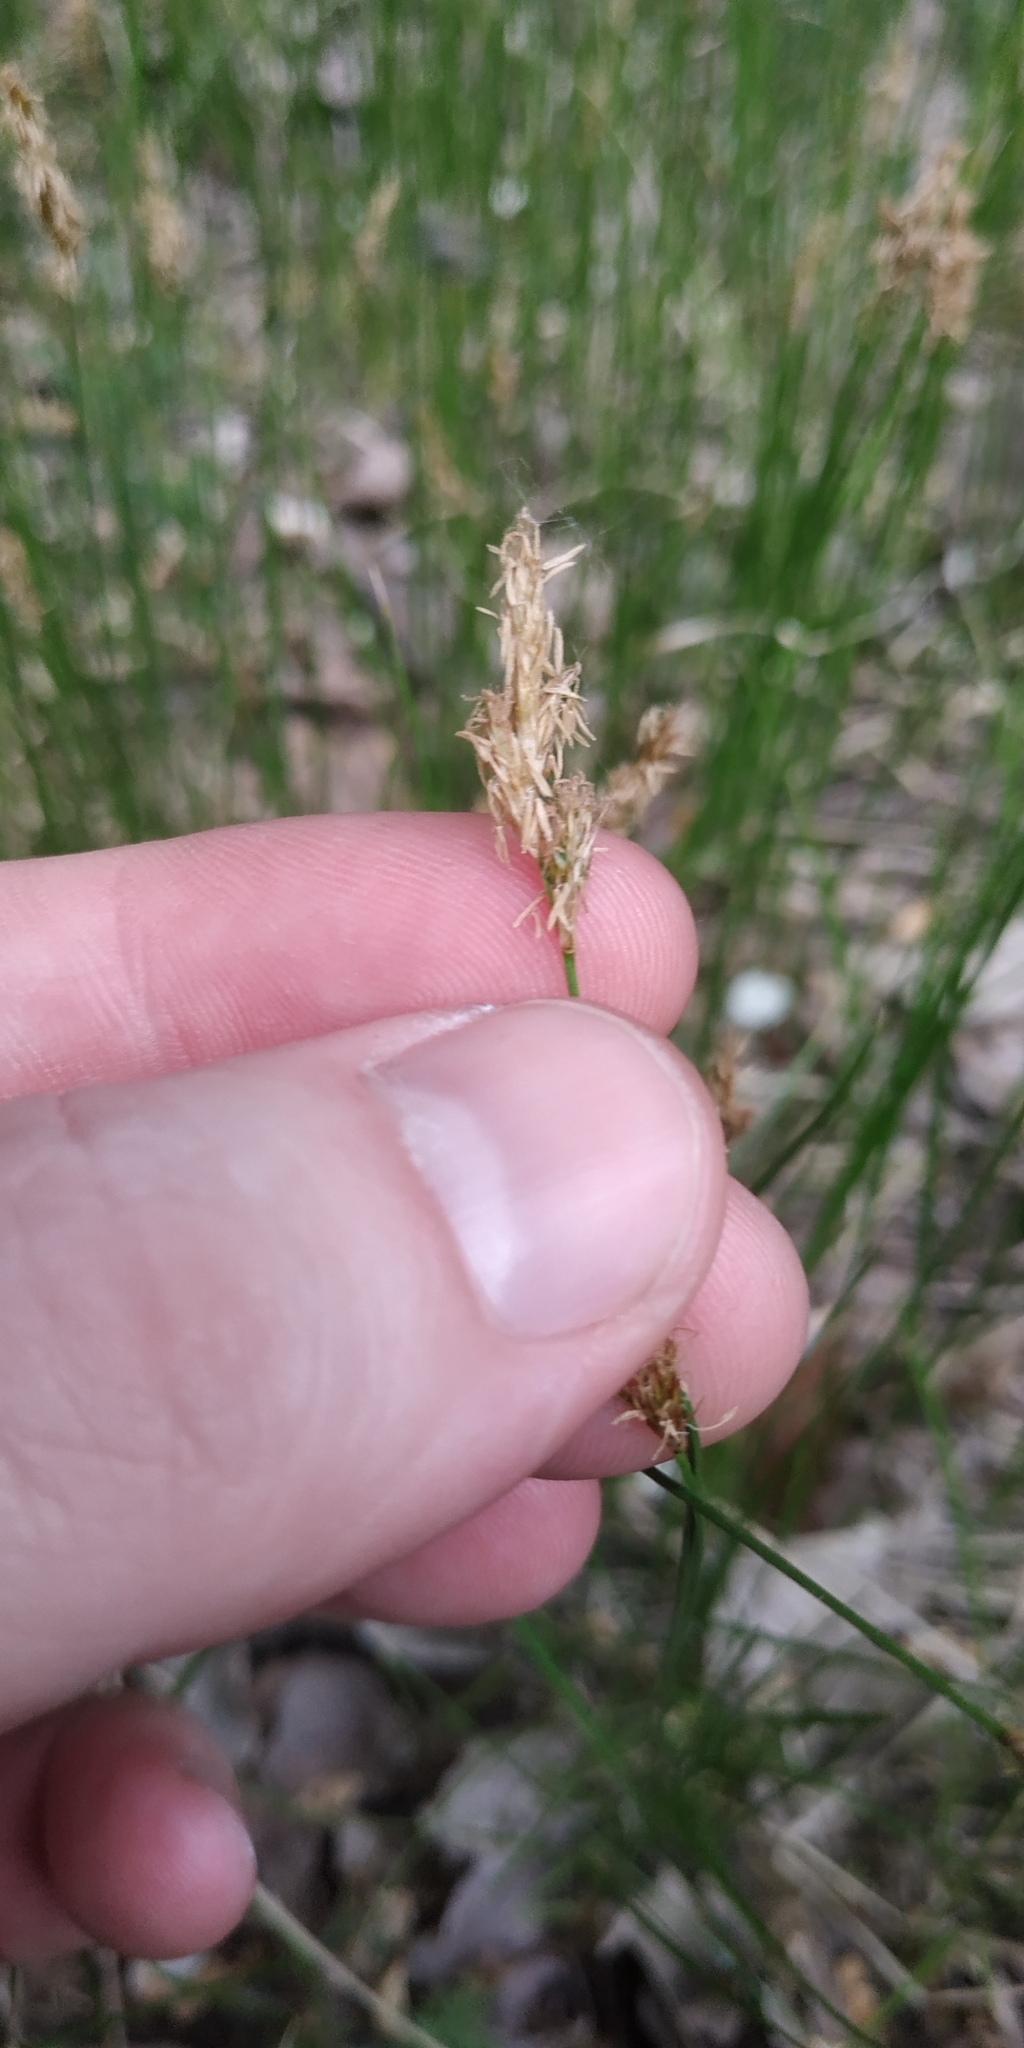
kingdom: Plantae
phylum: Tracheophyta
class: Liliopsida
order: Poales
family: Cyperaceae
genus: Carex
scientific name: Carex praecox
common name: Early sedge
